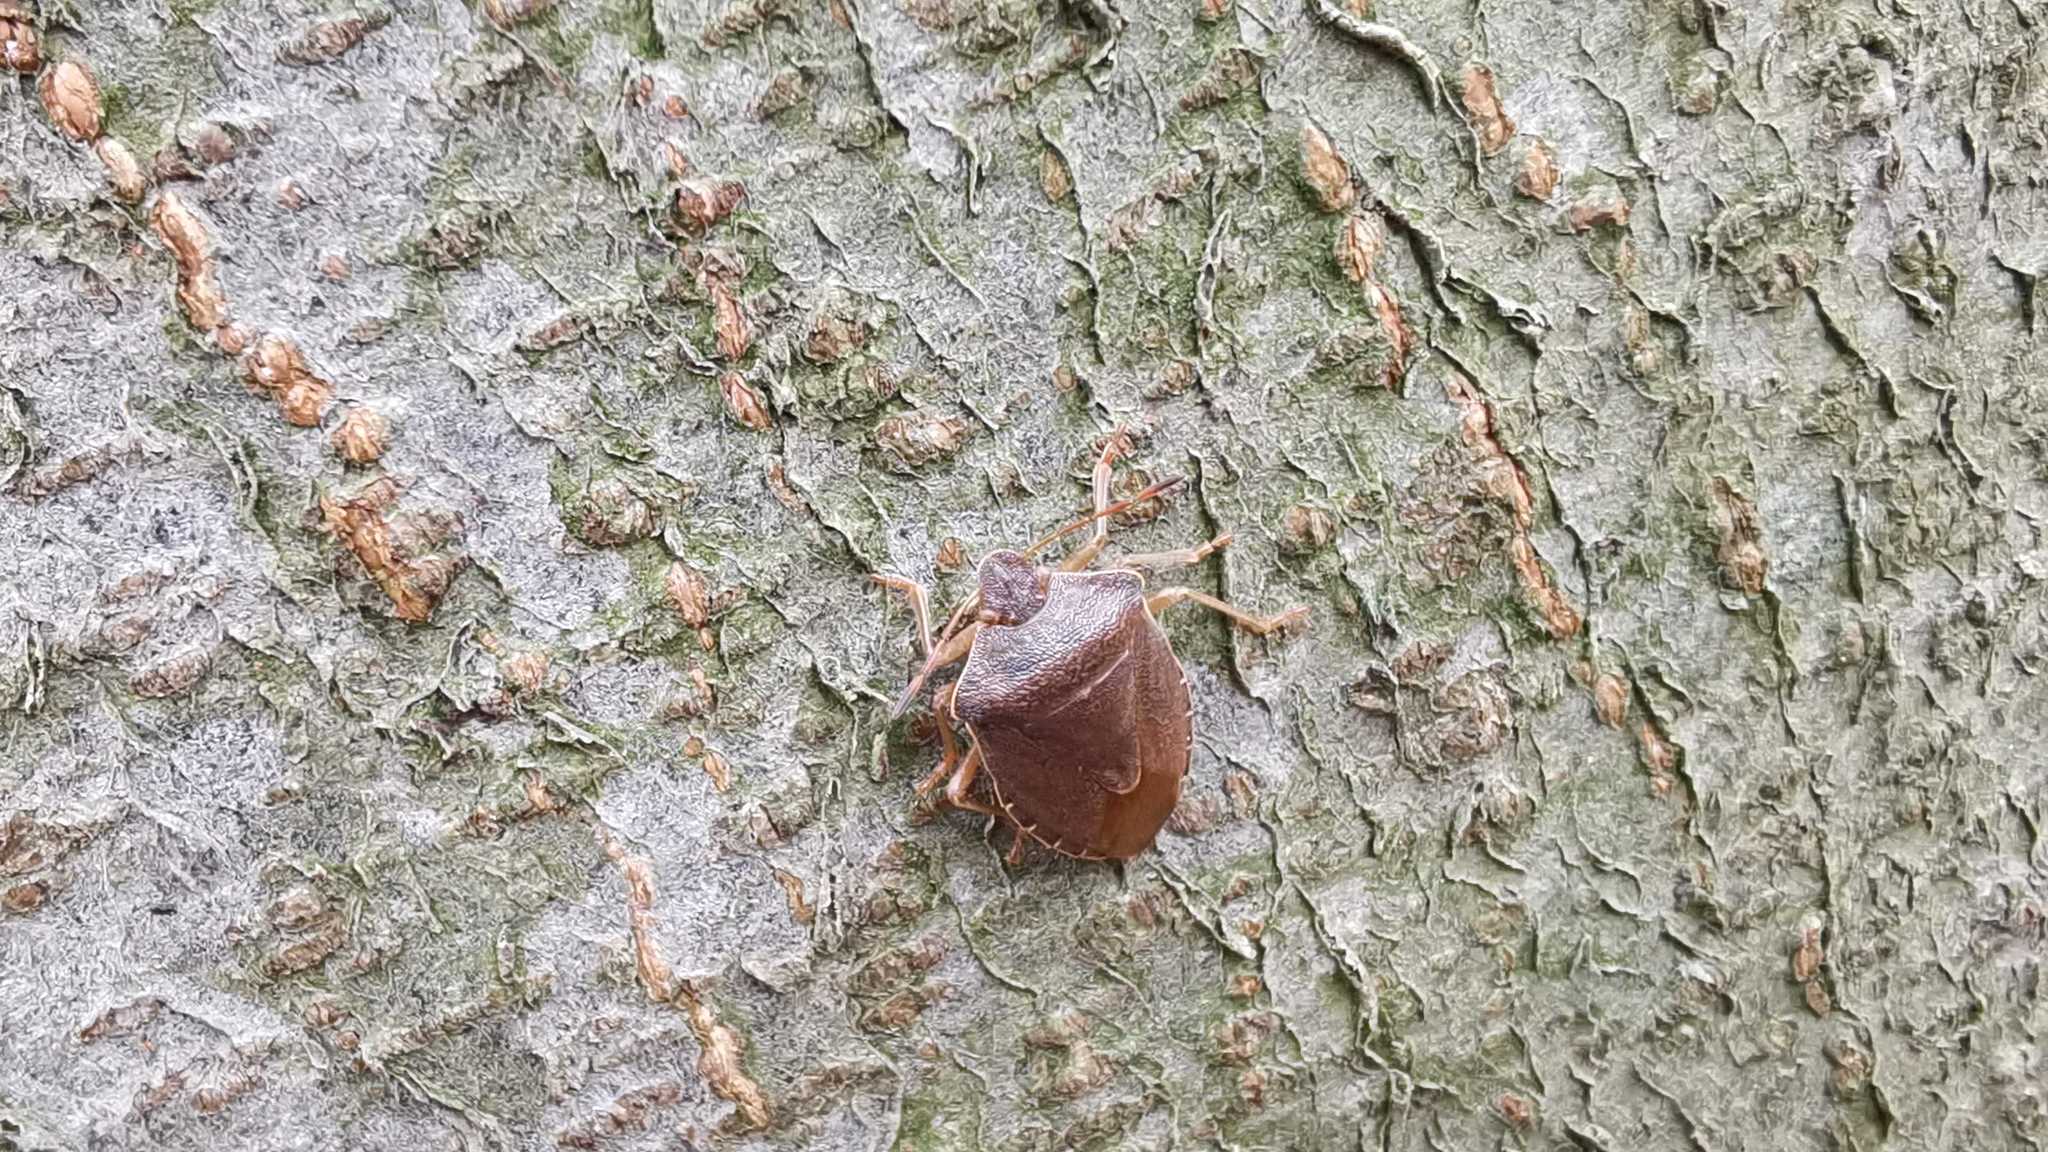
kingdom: Animalia
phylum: Arthropoda
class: Insecta
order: Hemiptera
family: Pentatomidae
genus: Palomena
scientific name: Palomena prasina
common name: Green shieldbug
